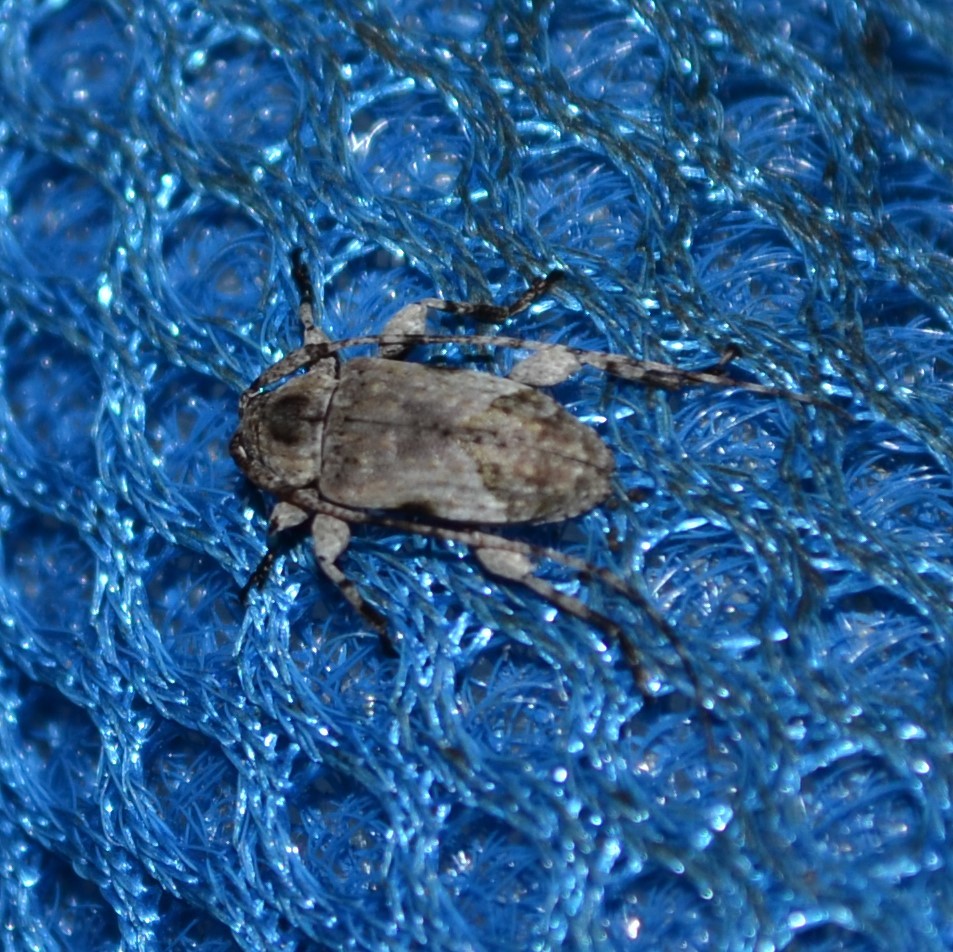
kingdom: Animalia
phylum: Arthropoda
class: Insecta
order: Coleoptera
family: Cerambycidae
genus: Styloleptus
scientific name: Styloleptus biustus
